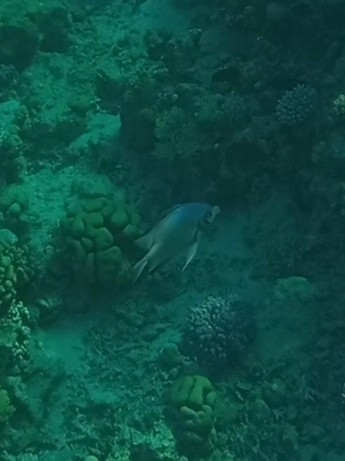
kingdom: Animalia
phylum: Chordata
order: Perciformes
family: Pomacentridae
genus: Amblyglyphidodon
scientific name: Amblyglyphidodon indicus
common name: Maldives damselfish
